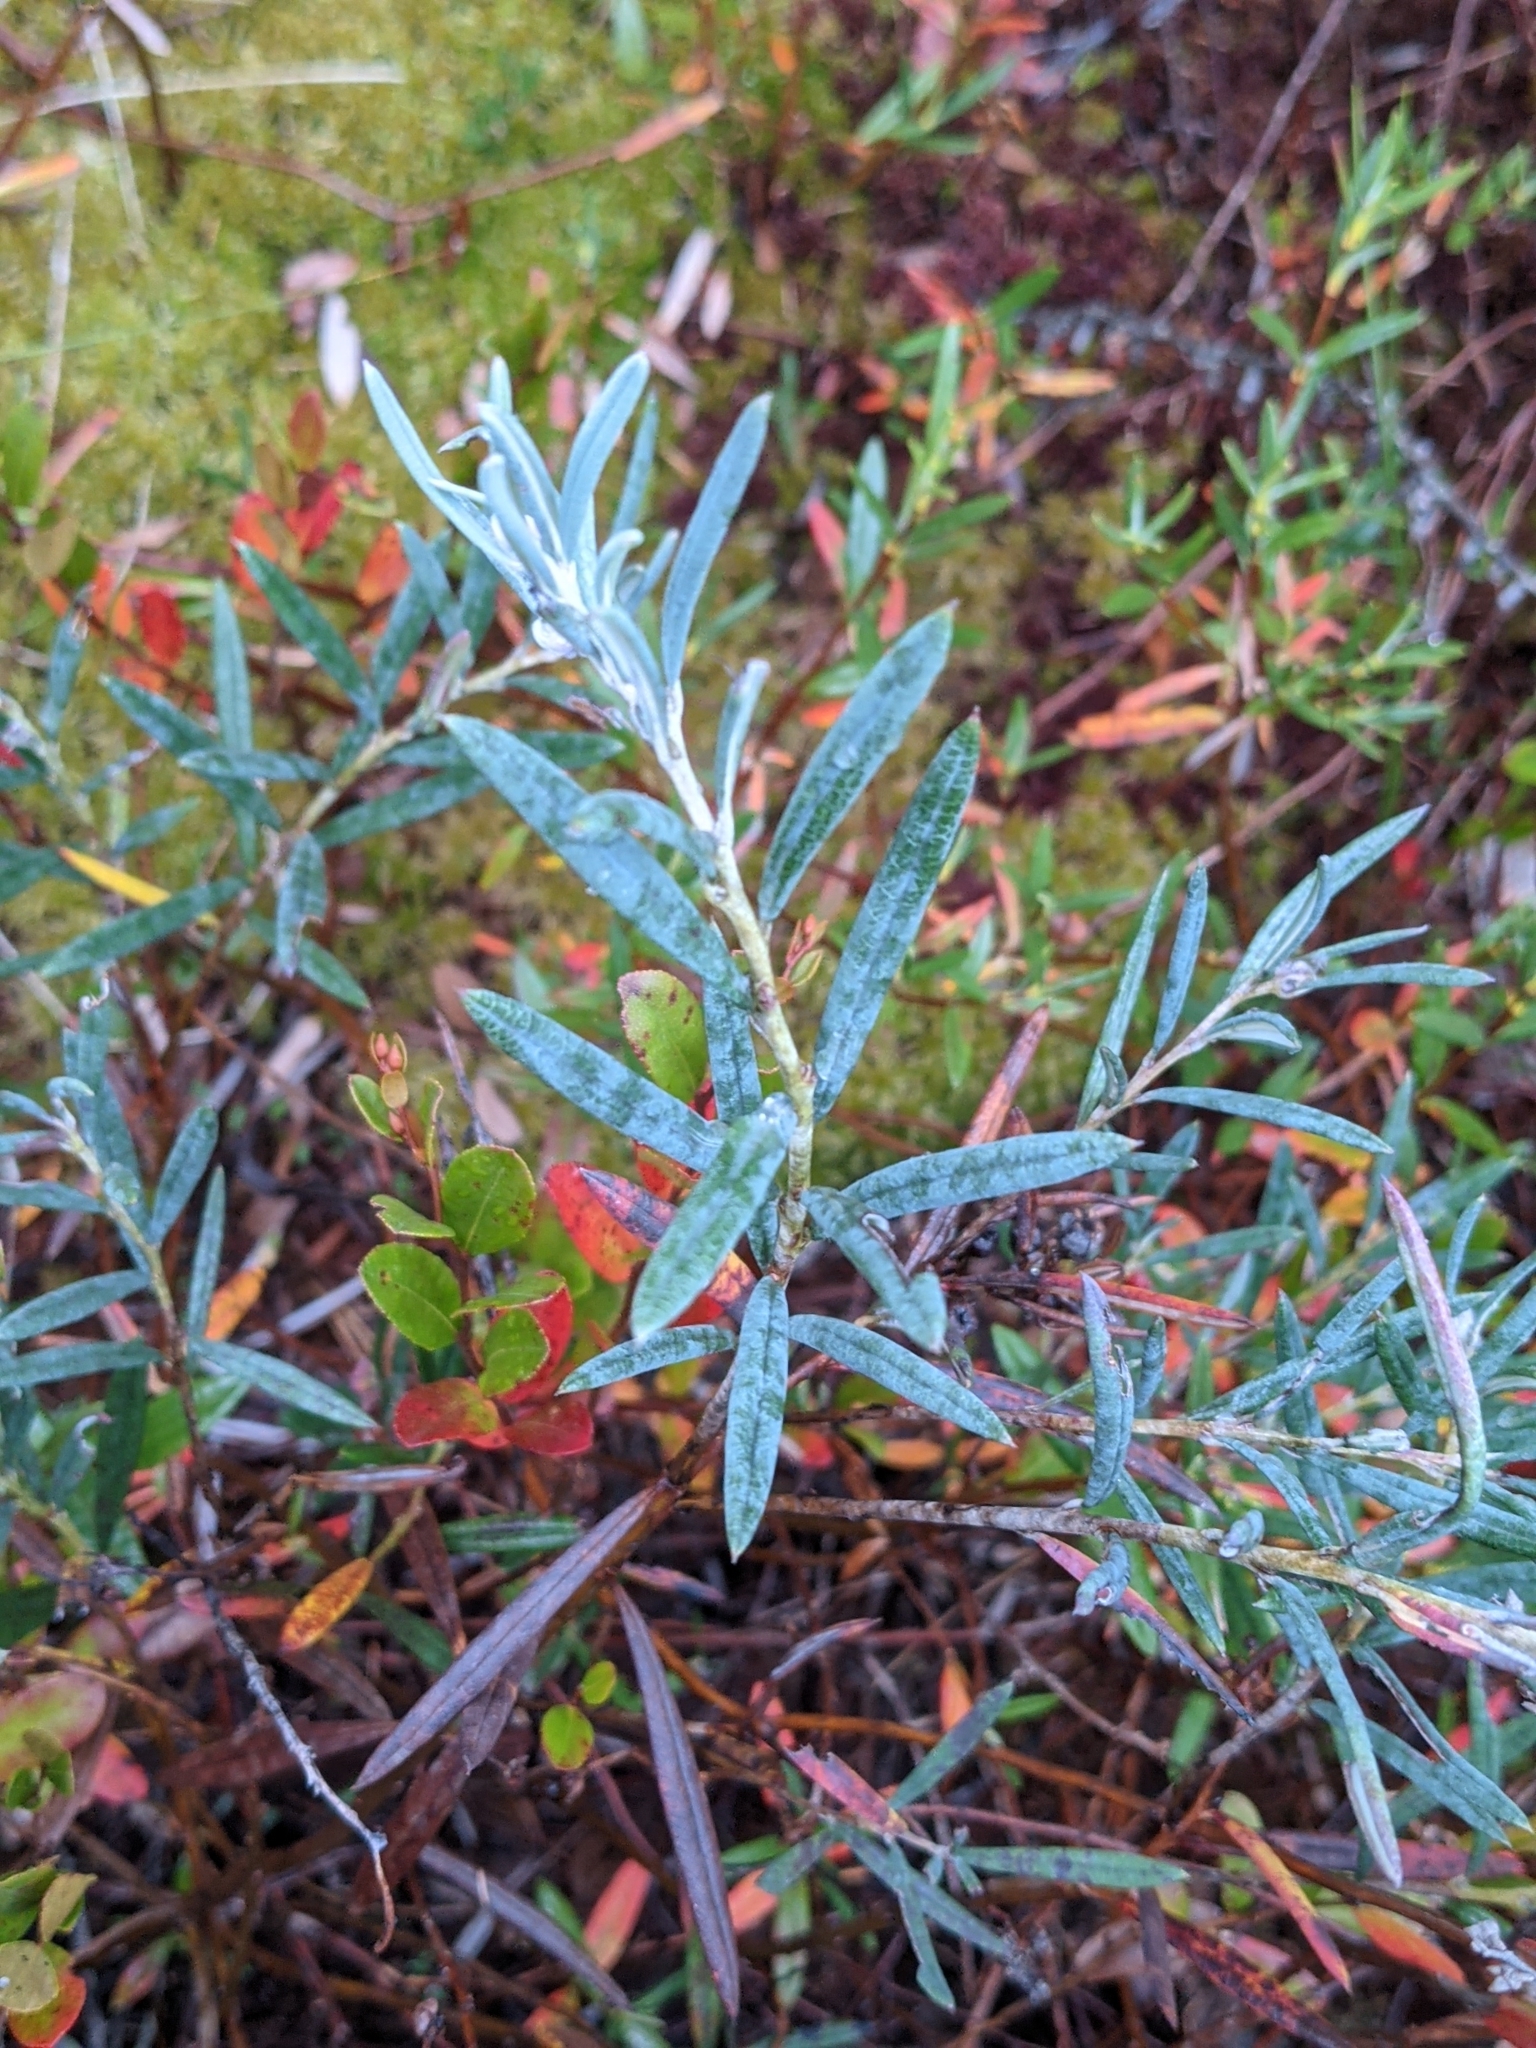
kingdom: Plantae
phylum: Tracheophyta
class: Magnoliopsida
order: Ericales
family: Ericaceae
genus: Andromeda
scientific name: Andromeda polifolia
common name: Bog-rosemary
